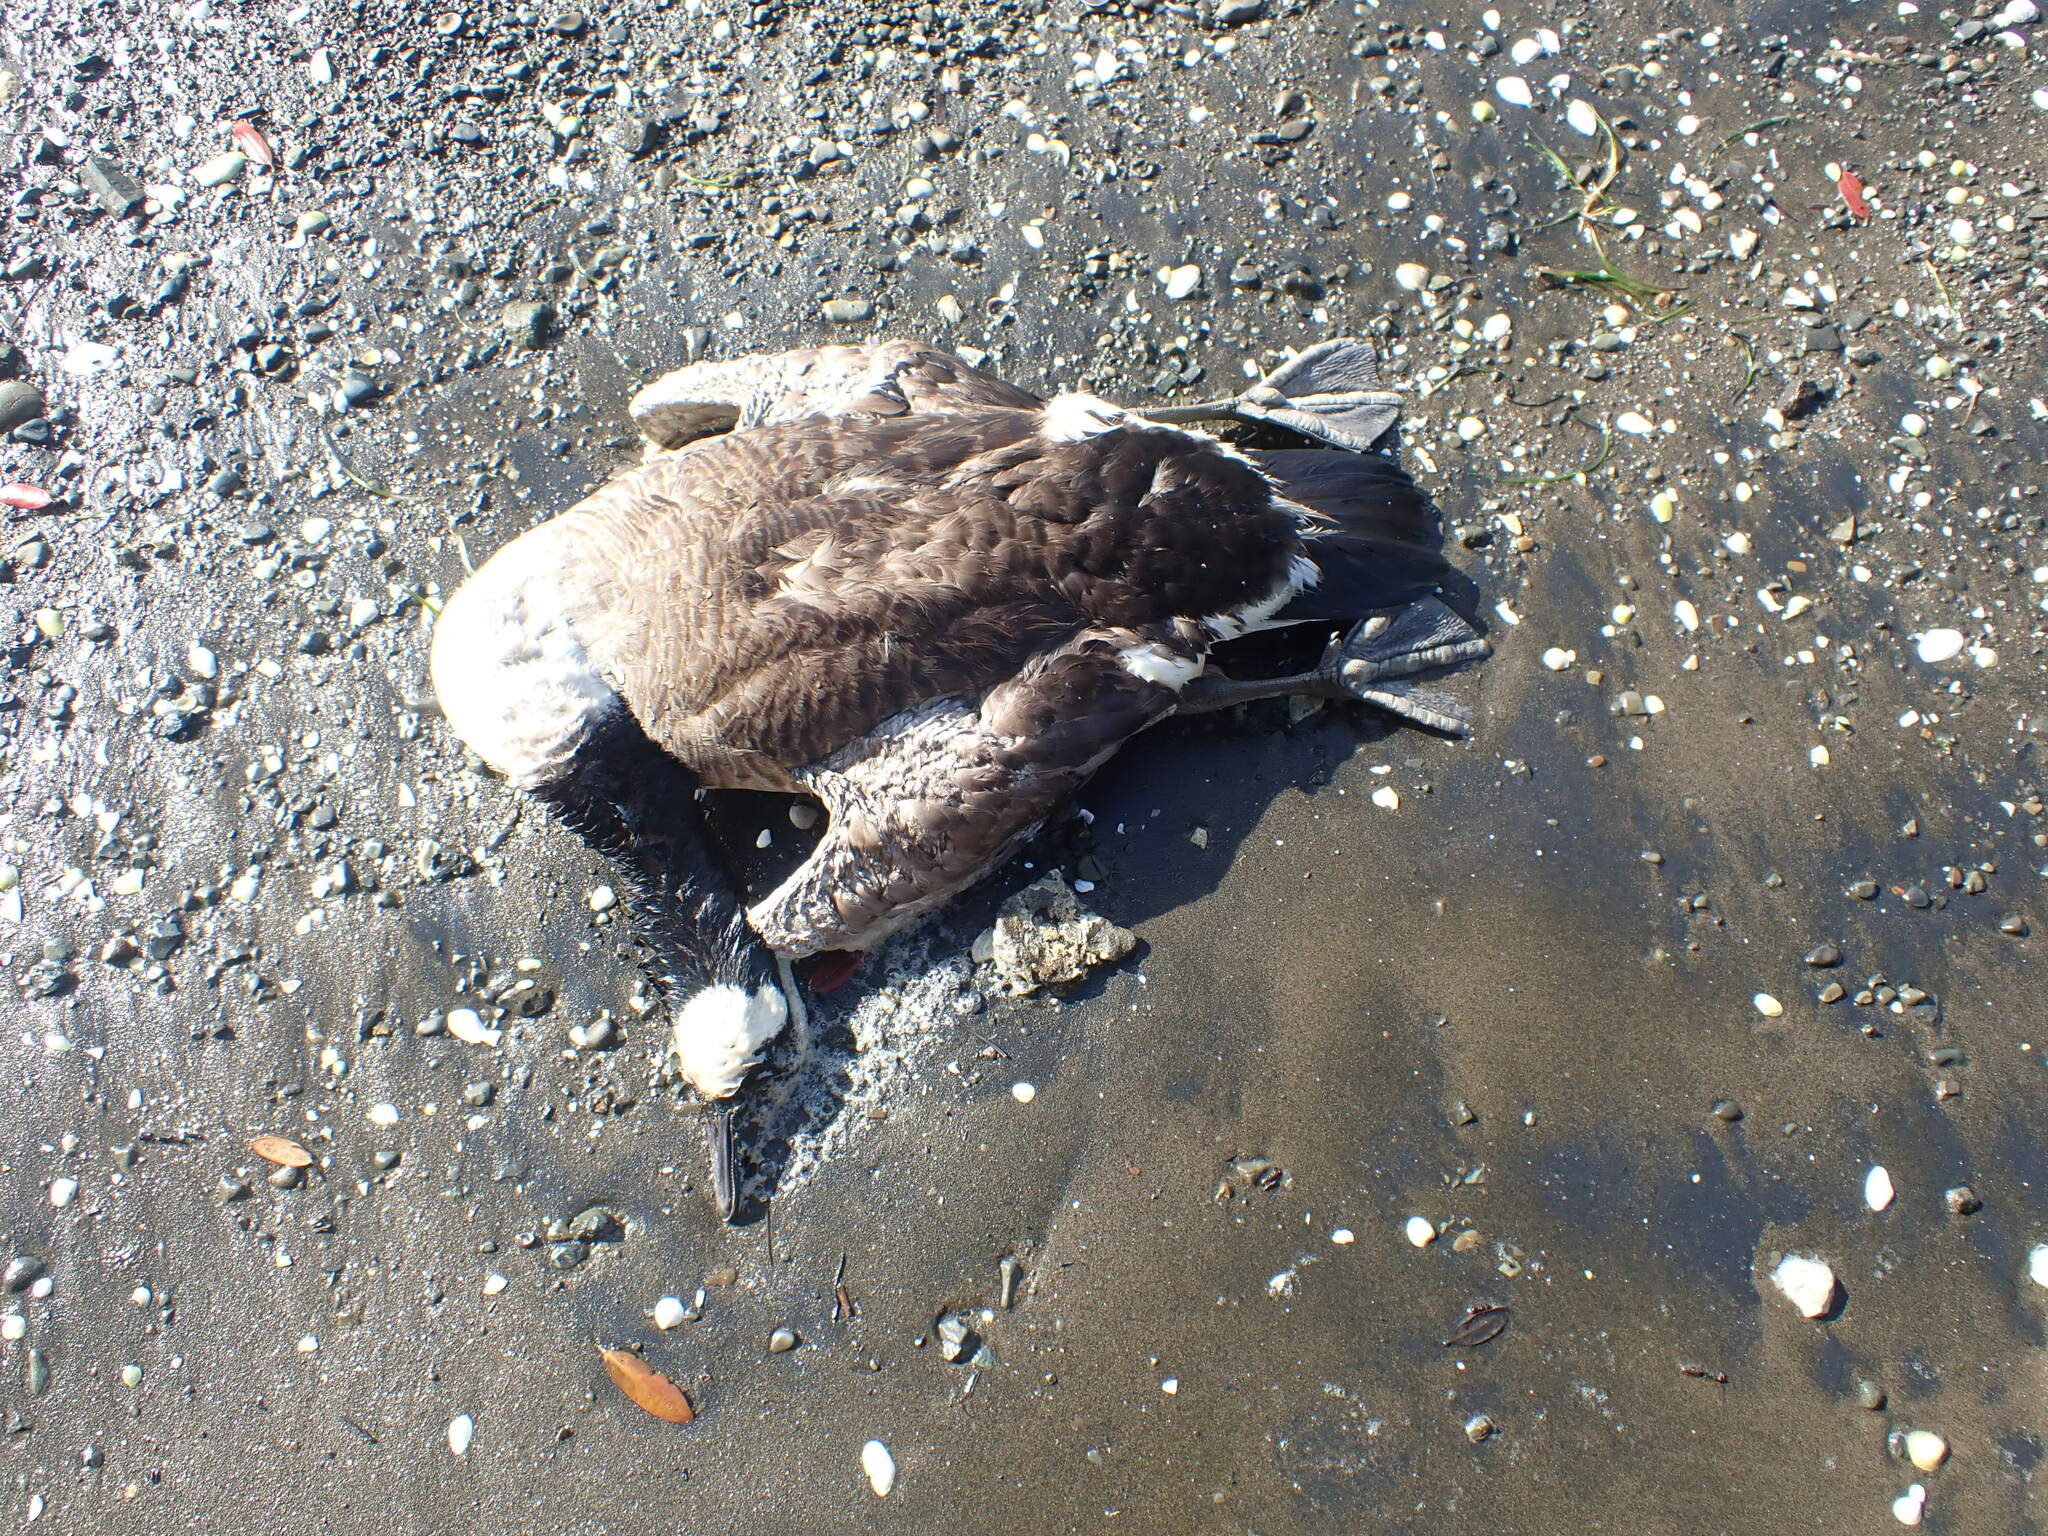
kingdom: Animalia
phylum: Chordata
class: Aves
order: Anseriformes
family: Anatidae
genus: Branta
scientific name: Branta canadensis
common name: Canada goose
